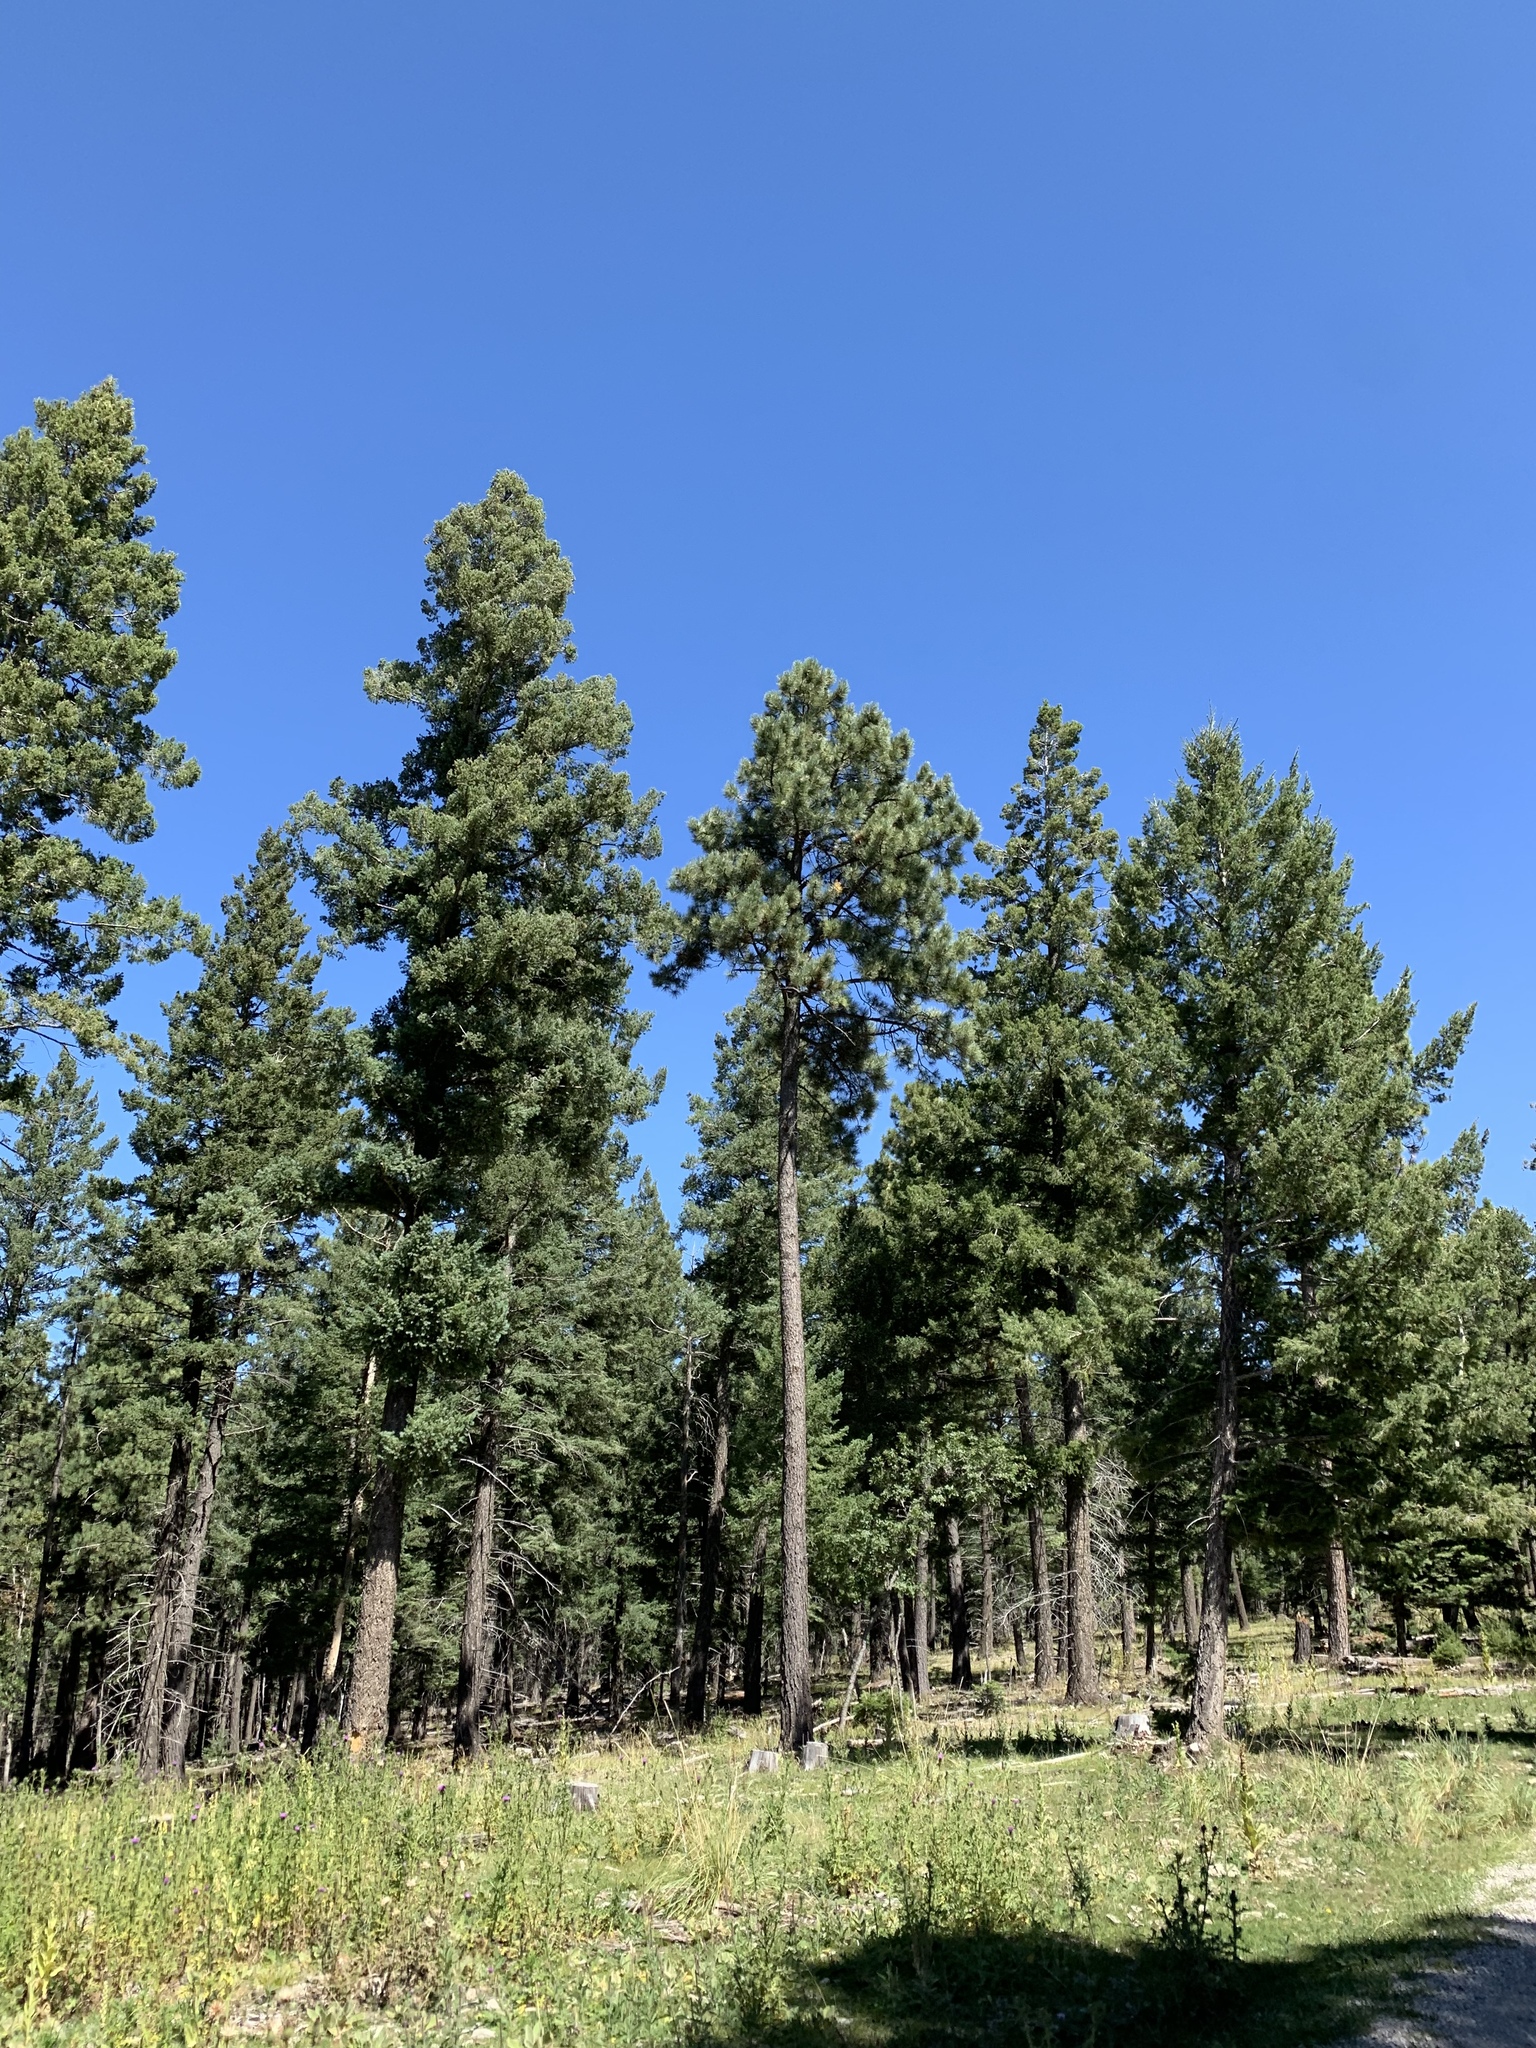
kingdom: Plantae
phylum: Tracheophyta
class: Pinopsida
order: Pinales
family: Pinaceae
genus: Pinus
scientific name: Pinus ponderosa
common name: Western yellow-pine
